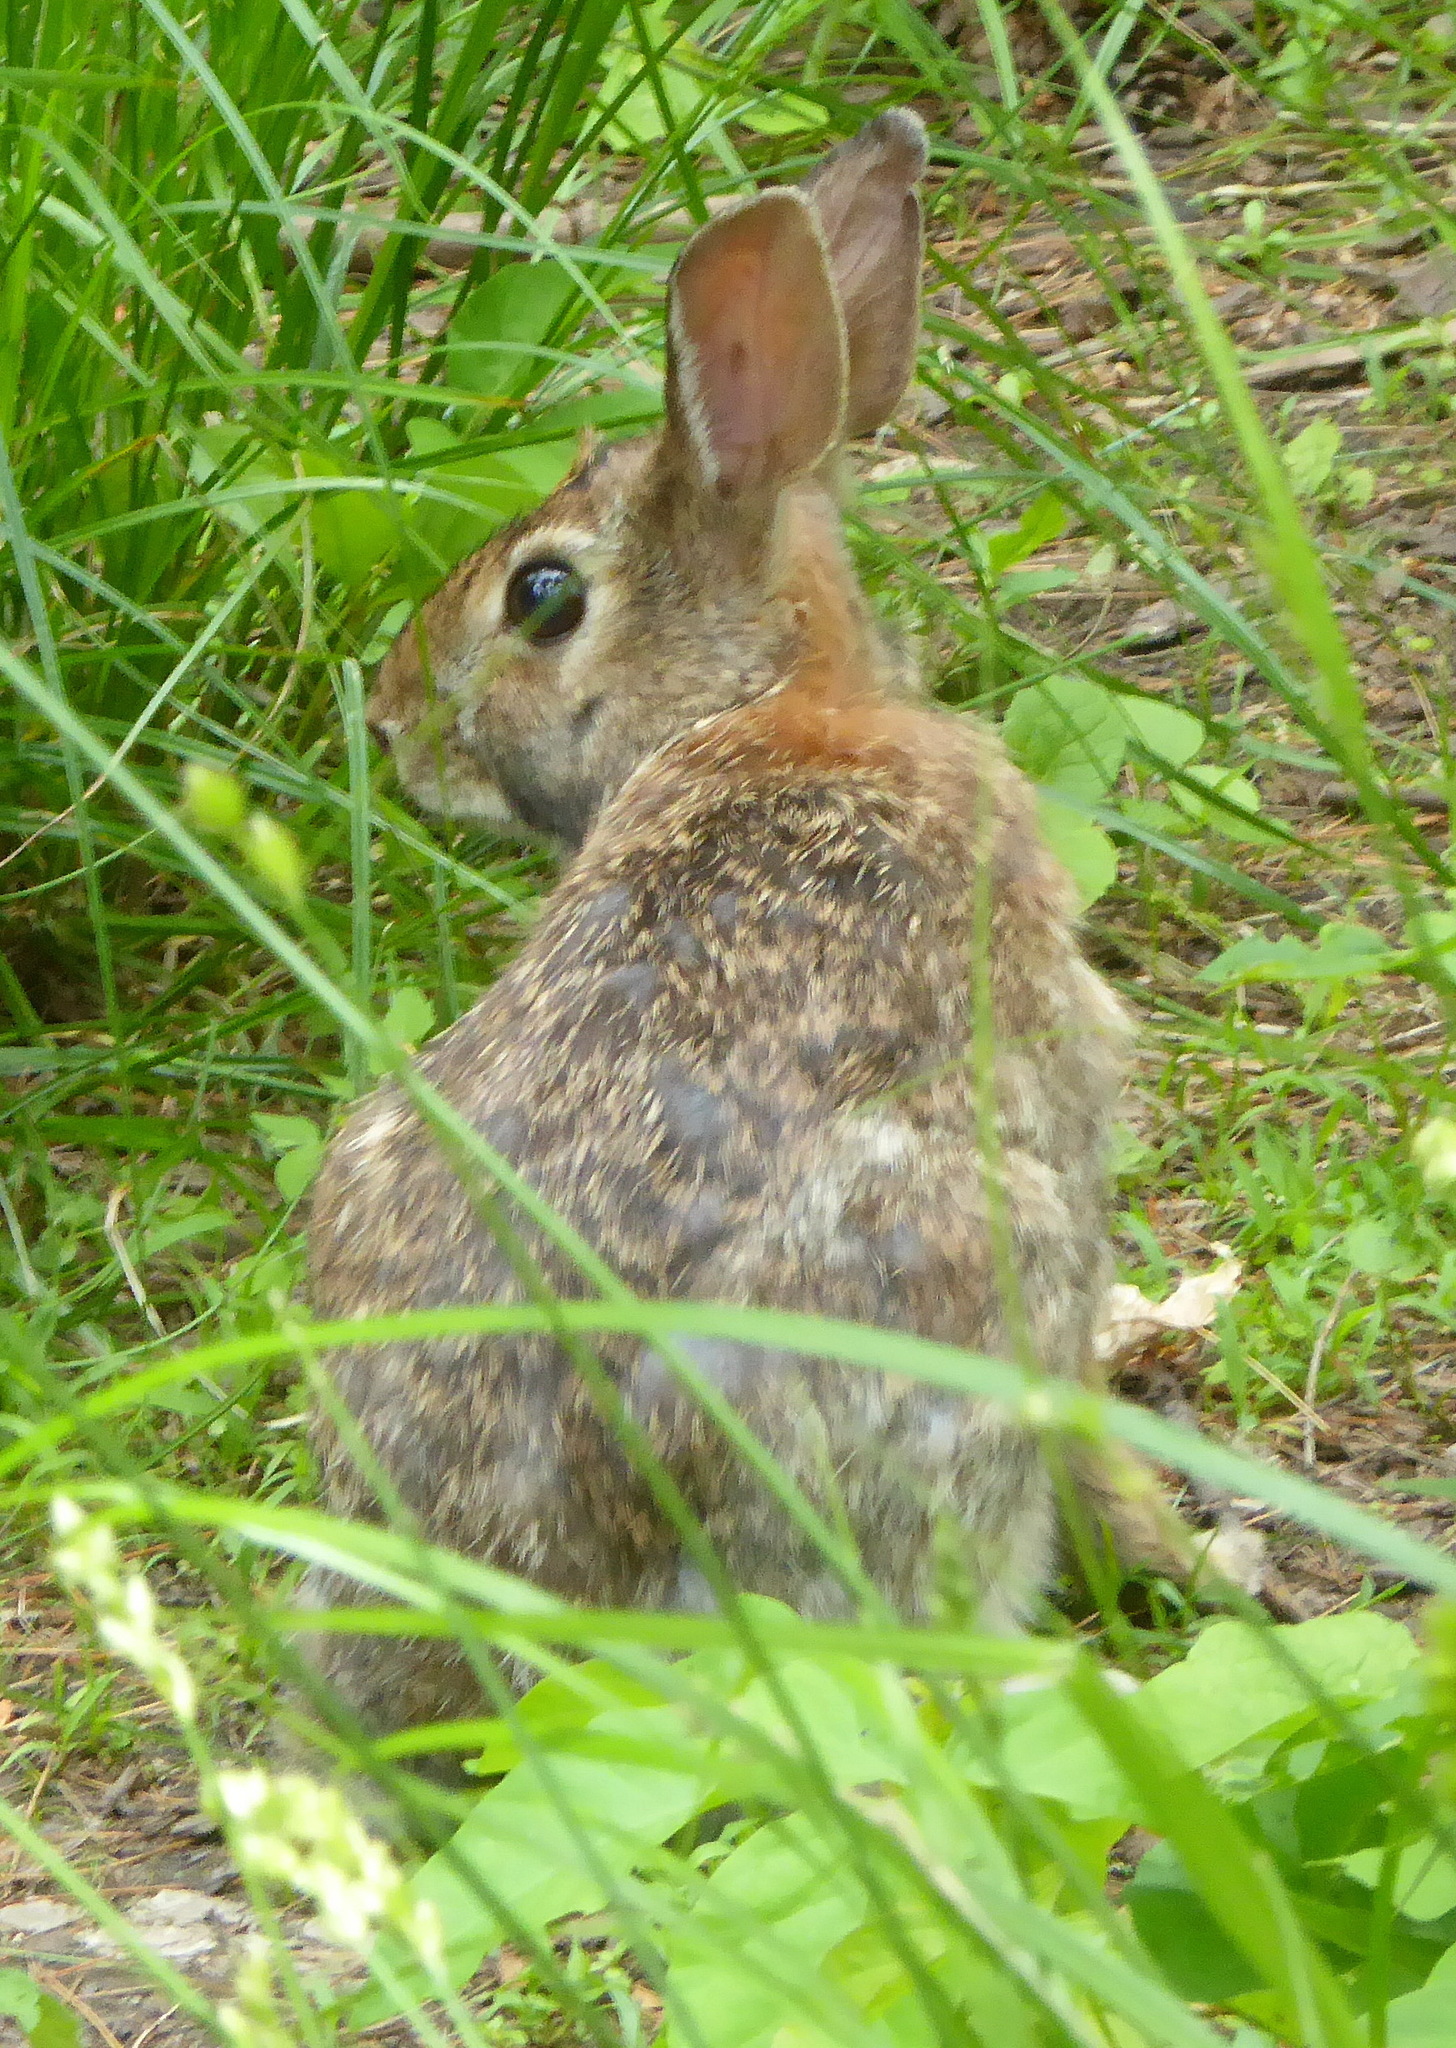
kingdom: Animalia
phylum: Chordata
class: Mammalia
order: Lagomorpha
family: Leporidae
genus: Sylvilagus
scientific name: Sylvilagus floridanus
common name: Eastern cottontail
